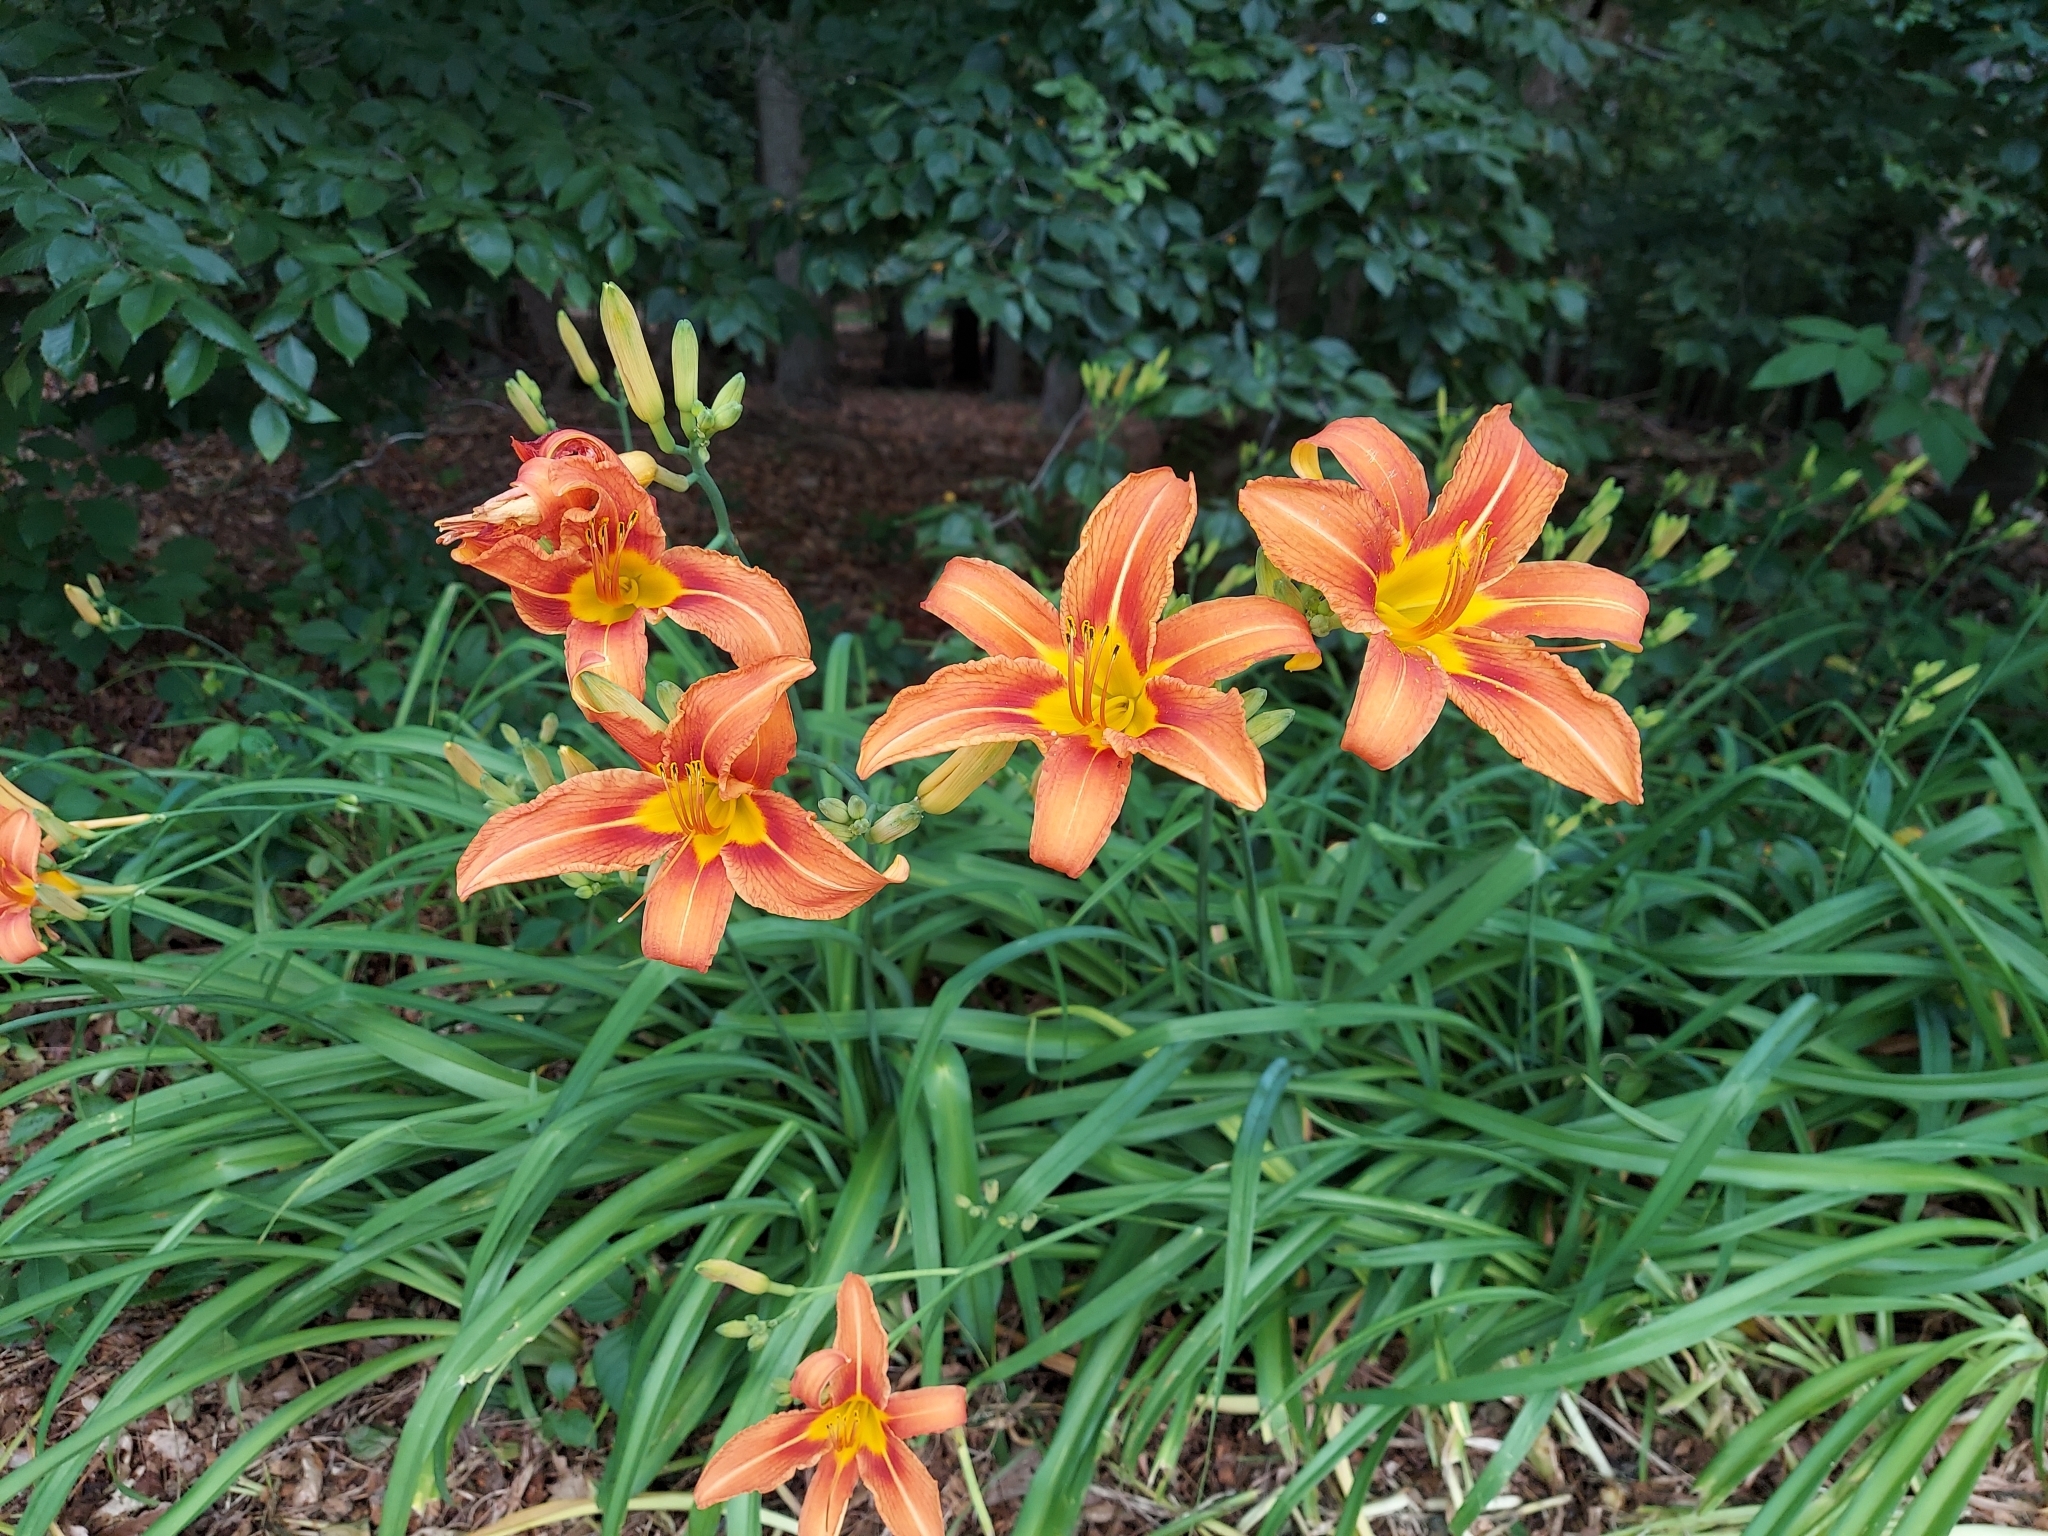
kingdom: Plantae
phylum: Tracheophyta
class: Liliopsida
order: Asparagales
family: Asphodelaceae
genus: Hemerocallis
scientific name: Hemerocallis fulva
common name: Orange day-lily
